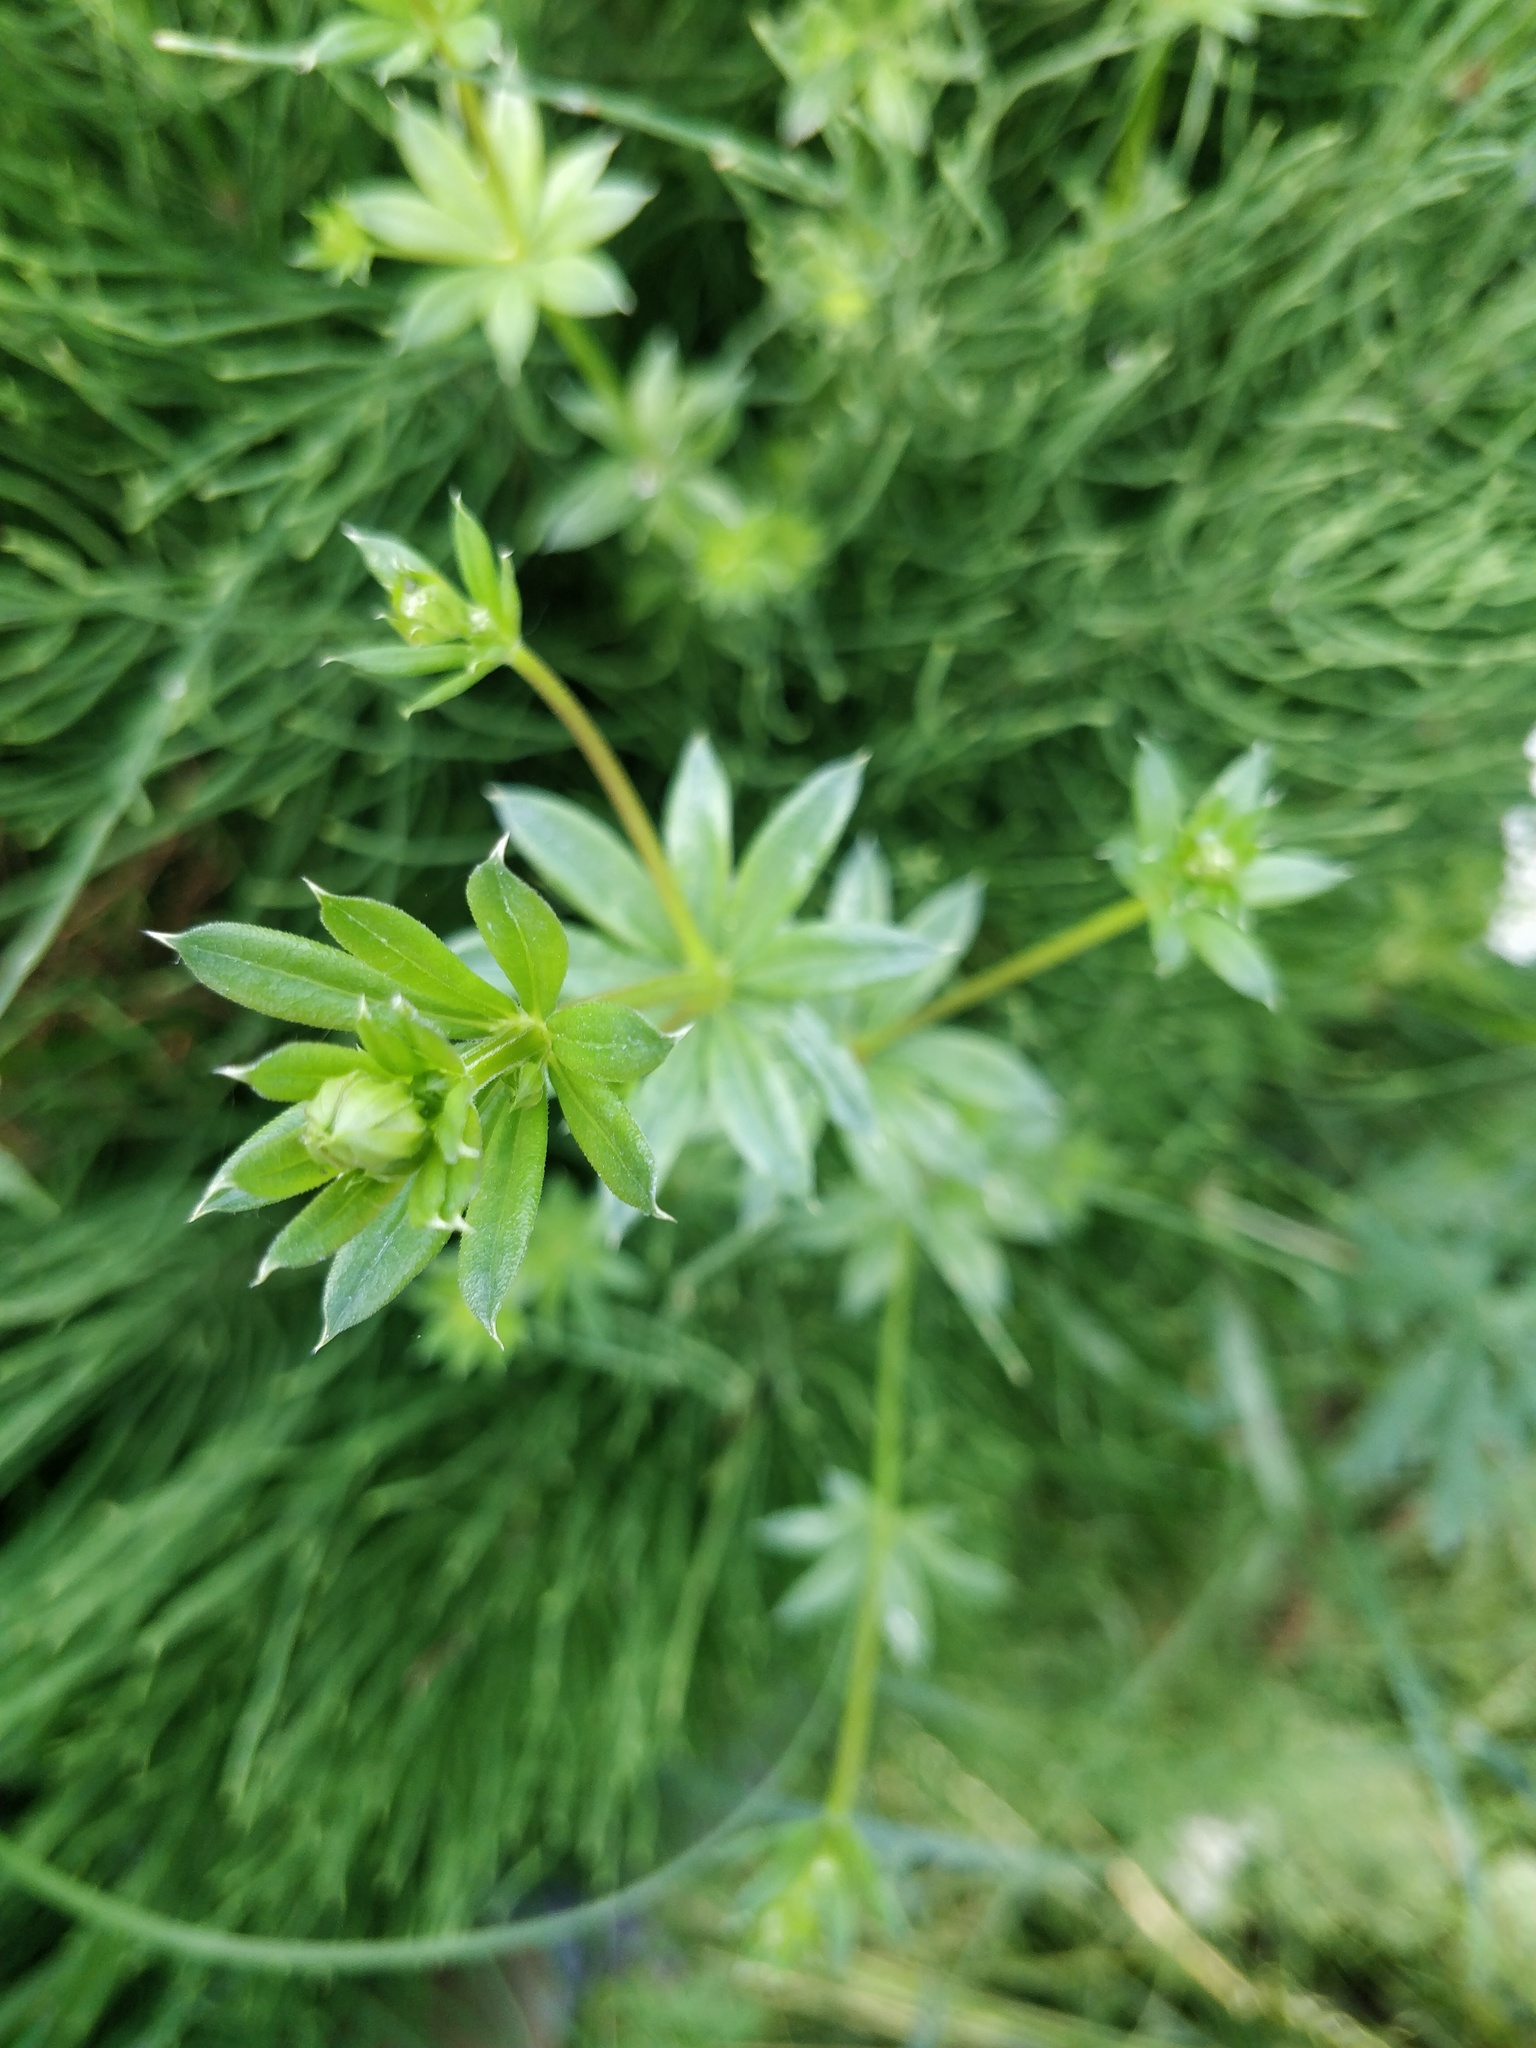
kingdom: Plantae
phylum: Tracheophyta
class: Magnoliopsida
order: Gentianales
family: Rubiaceae
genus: Galium
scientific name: Galium rivale
